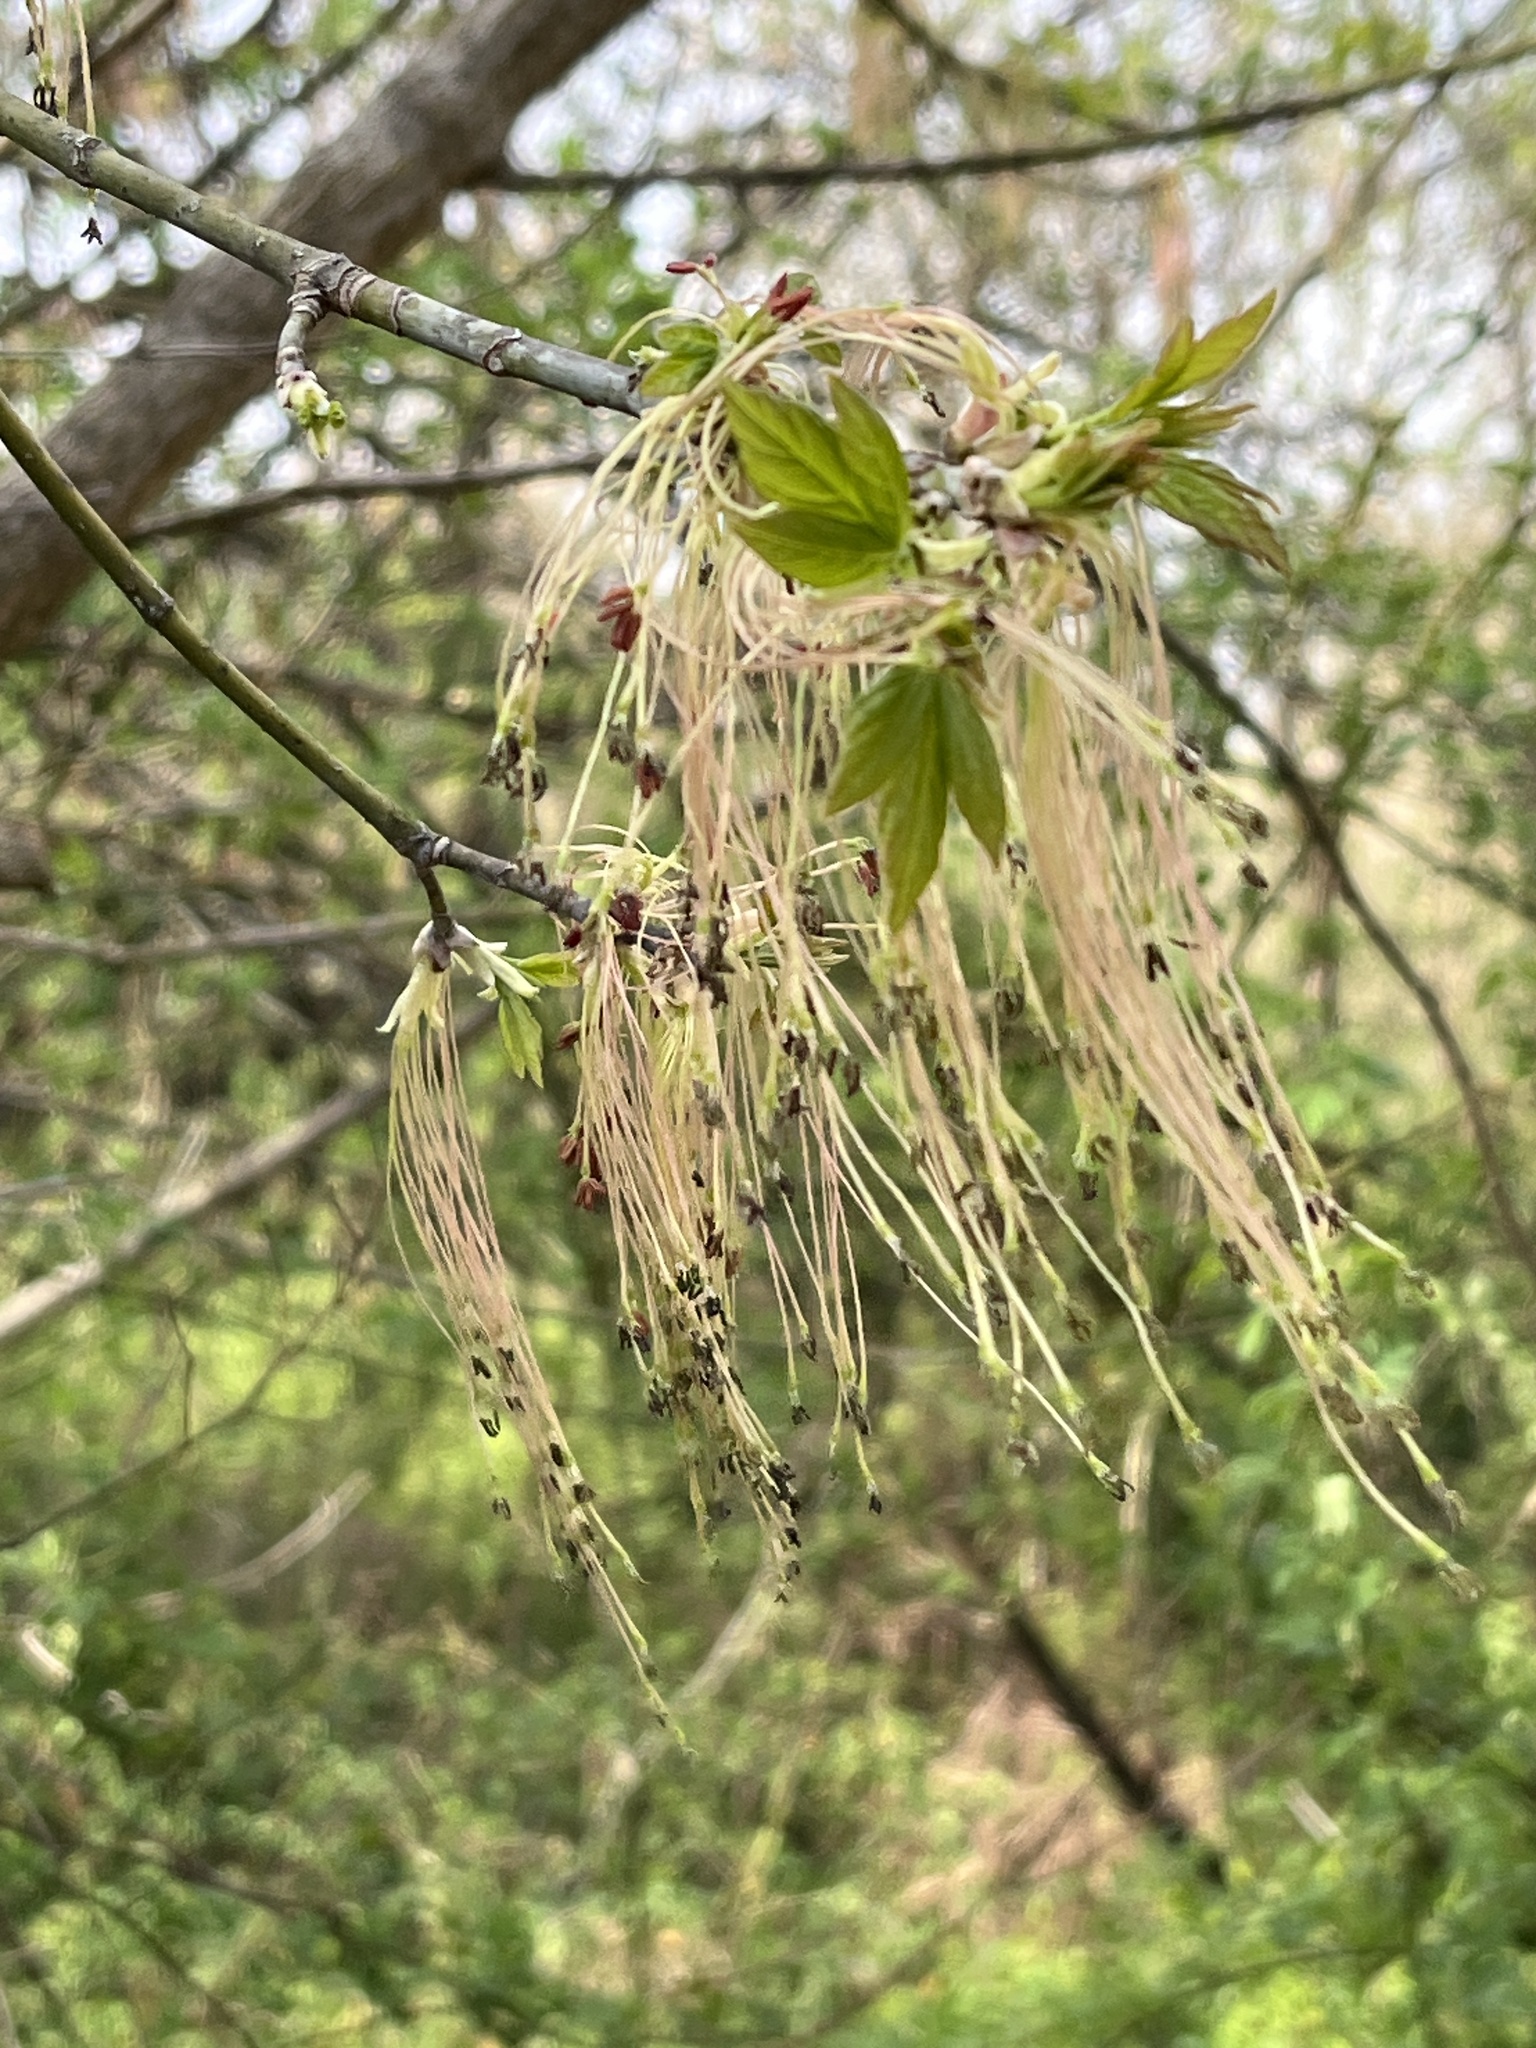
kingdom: Plantae
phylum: Tracheophyta
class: Magnoliopsida
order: Sapindales
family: Sapindaceae
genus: Acer
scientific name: Acer negundo
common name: Ashleaf maple
